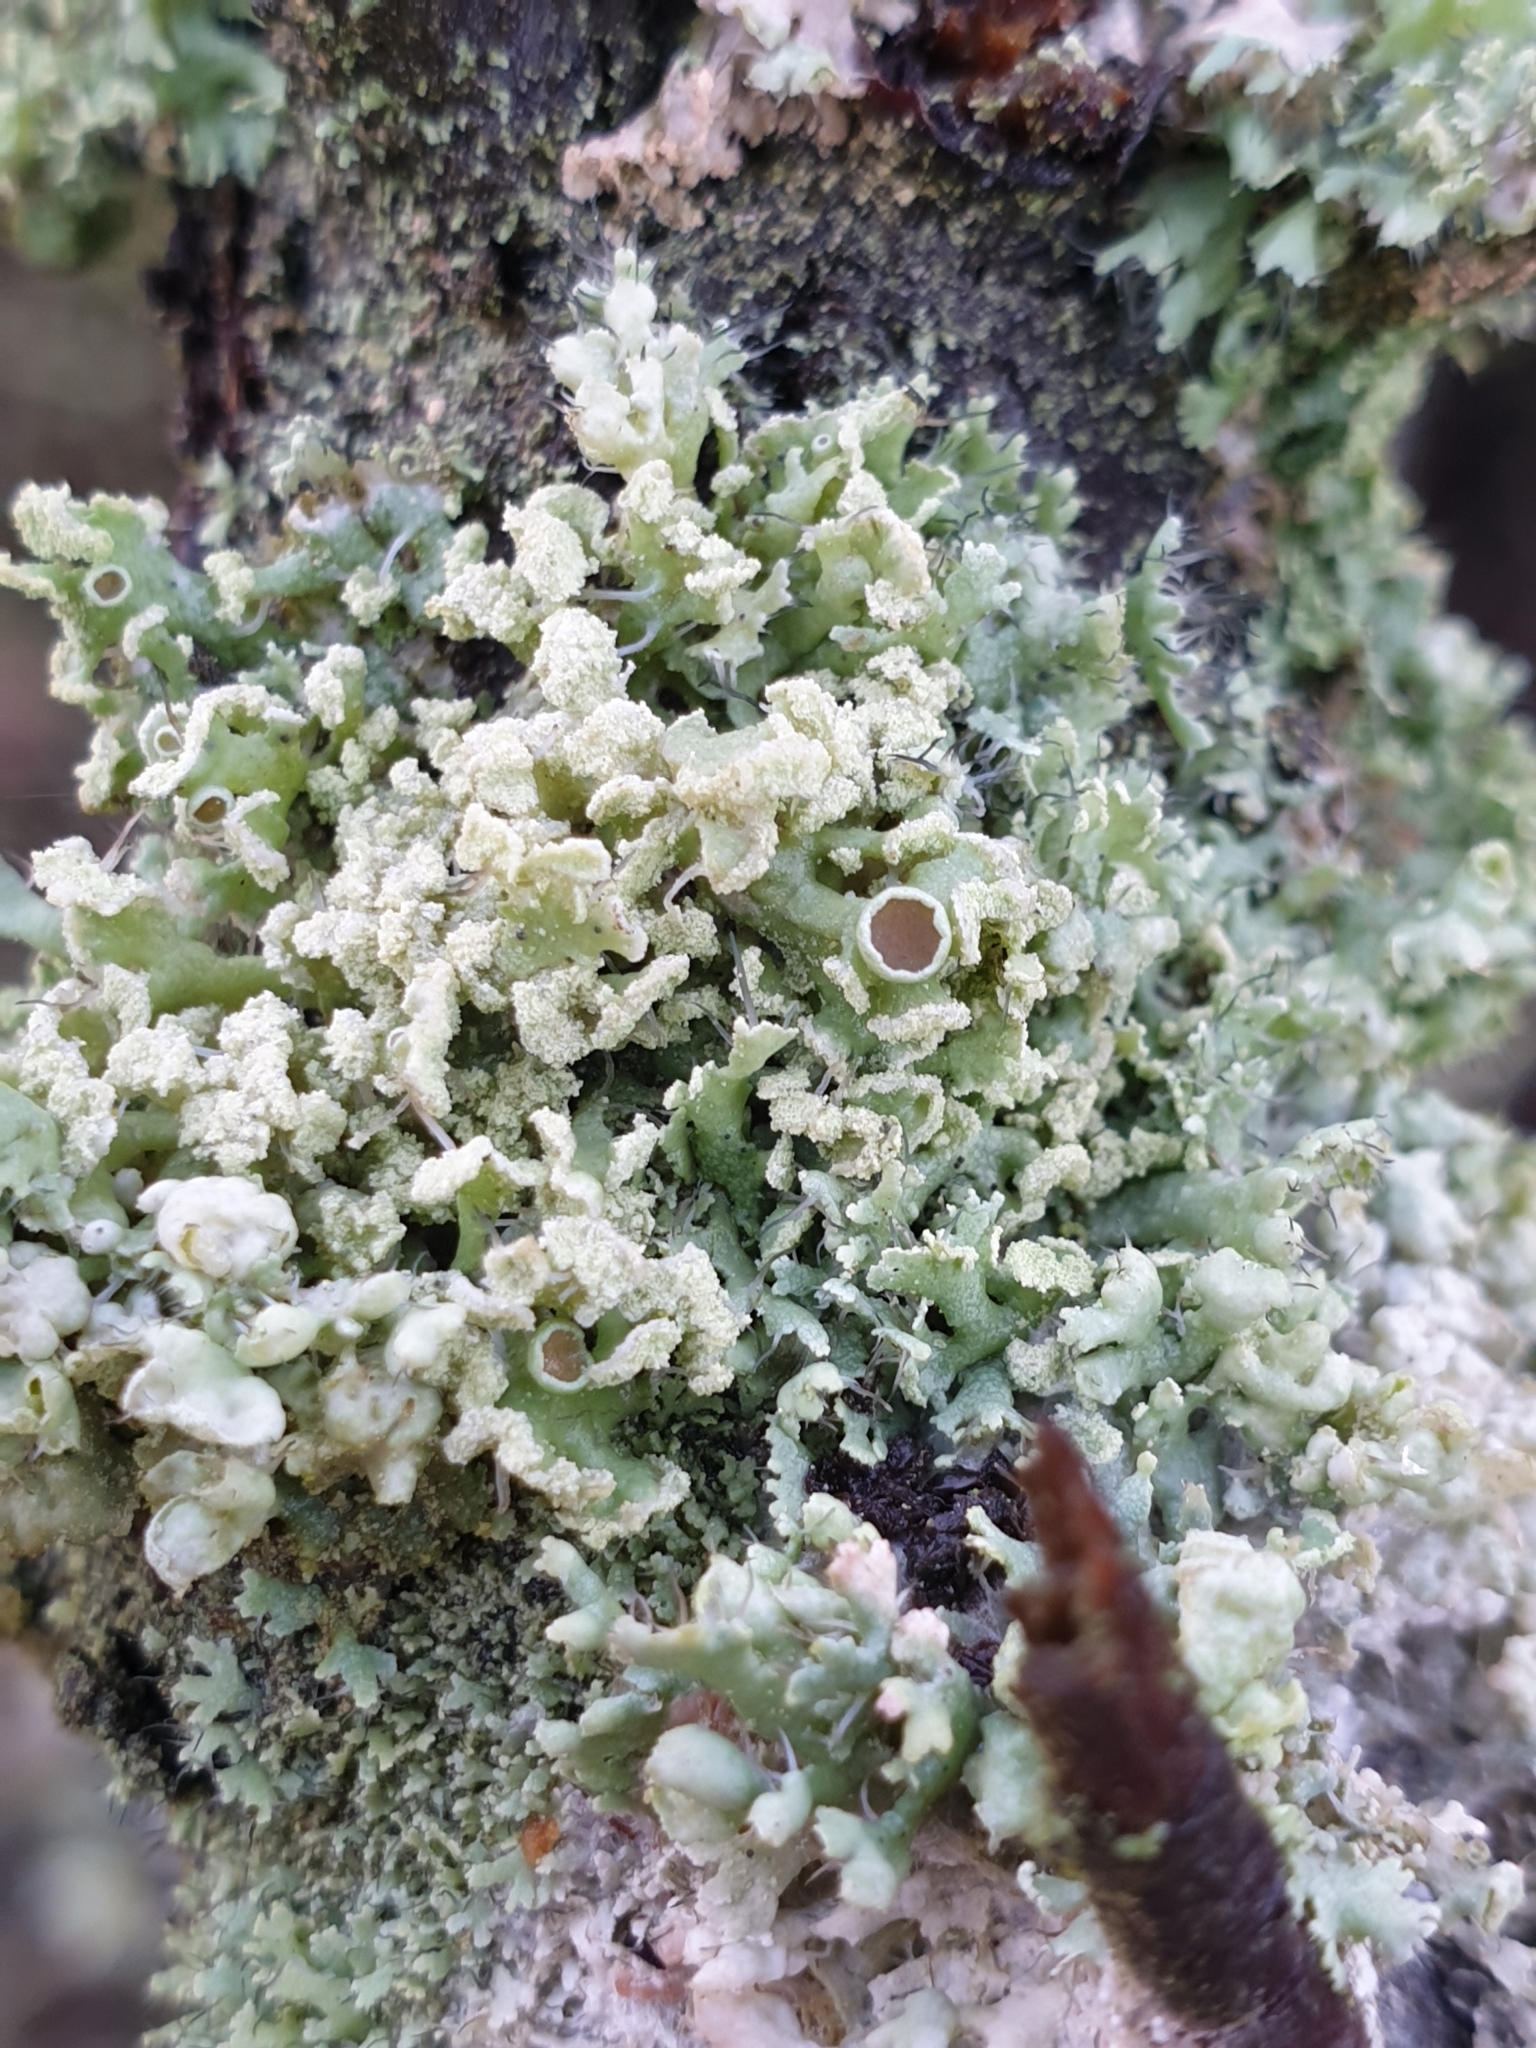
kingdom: Fungi
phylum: Ascomycota
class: Lecanoromycetes
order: Caliciales
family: Physciaceae
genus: Physcia
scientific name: Physcia tenella
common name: Fringed rosette lichen
